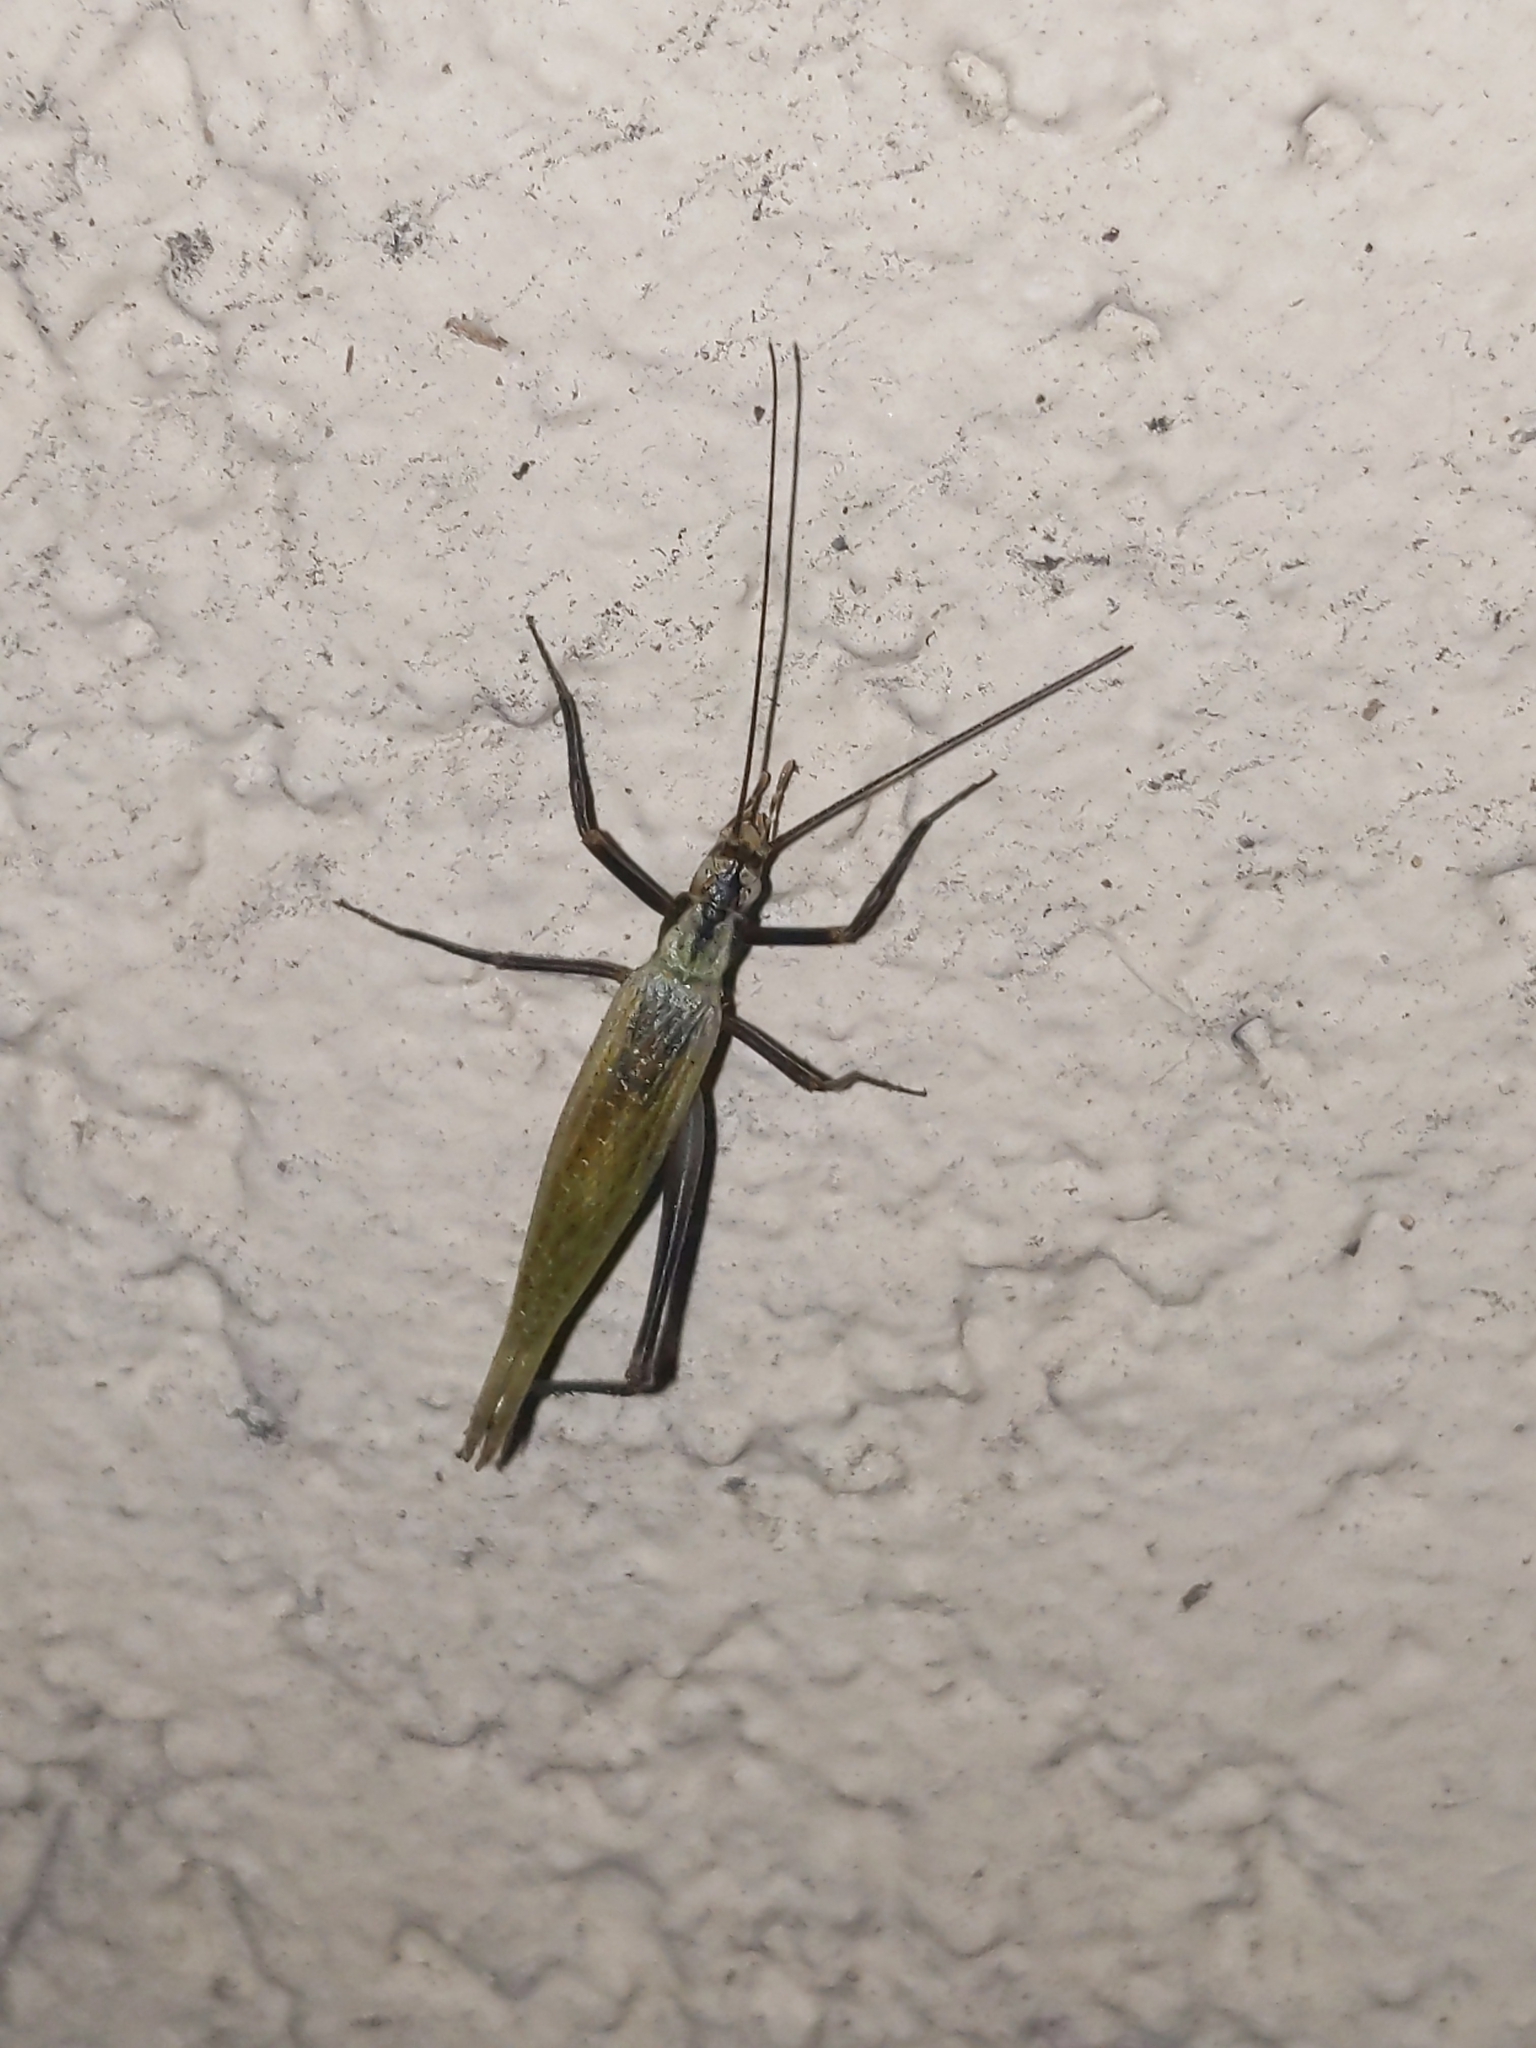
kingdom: Animalia
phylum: Arthropoda
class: Insecta
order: Orthoptera
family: Gryllidae
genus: Oecanthus
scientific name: Oecanthus nigricornis
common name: Black-horned tree cricket
